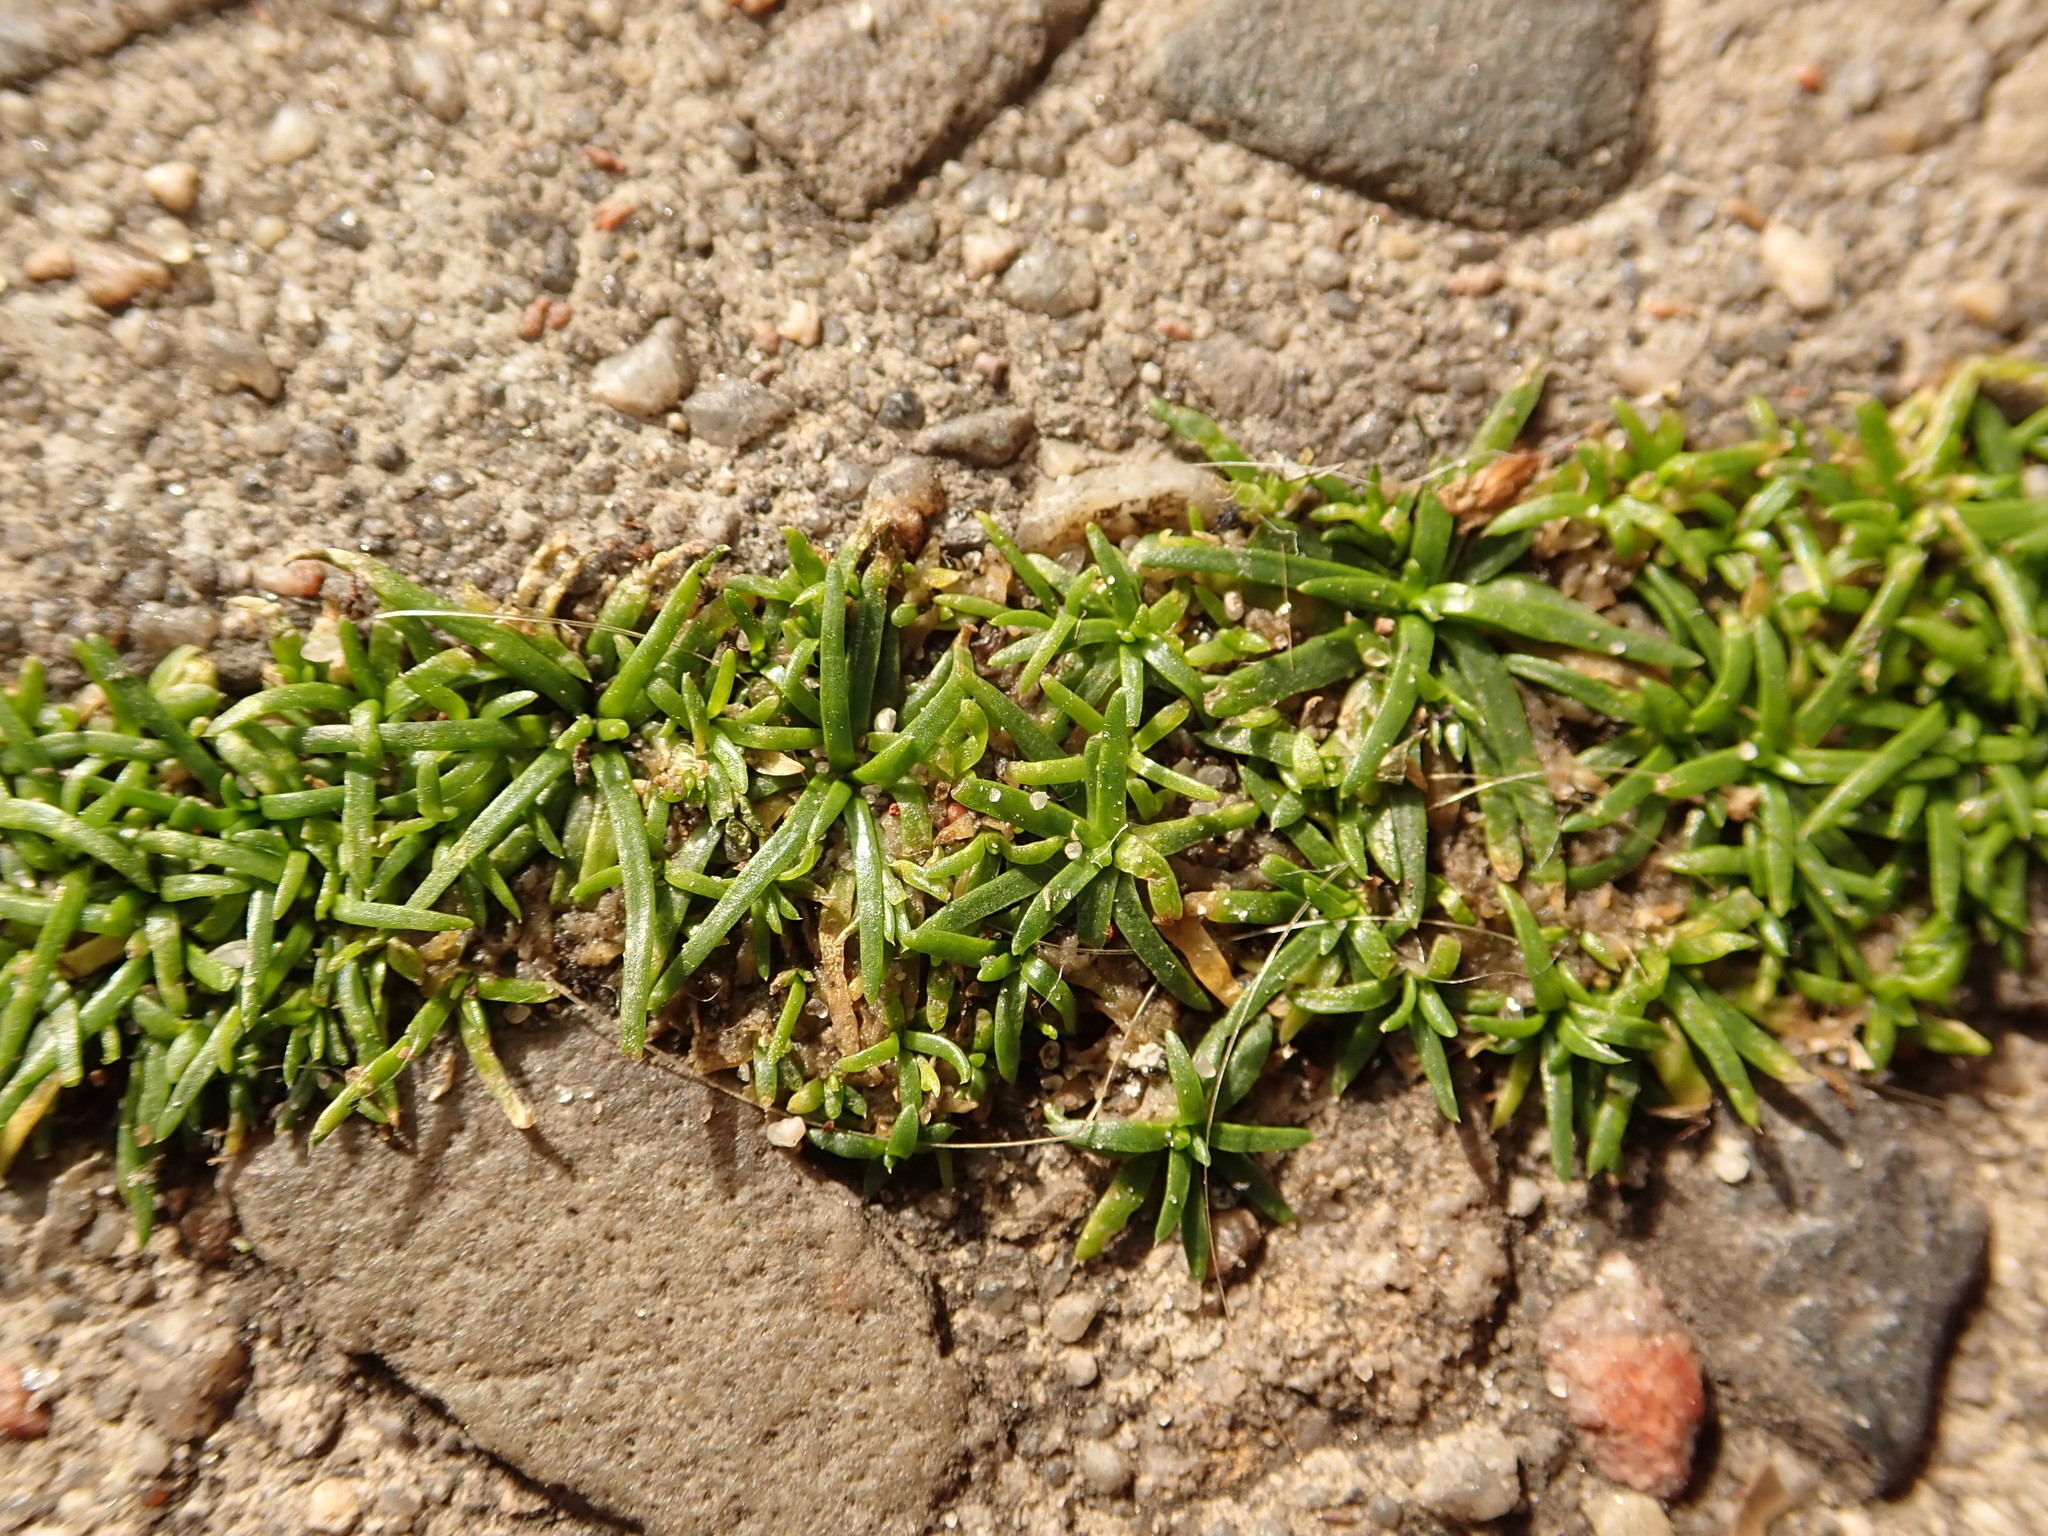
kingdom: Plantae
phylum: Tracheophyta
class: Magnoliopsida
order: Caryophyllales
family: Caryophyllaceae
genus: Sagina
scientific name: Sagina procumbens
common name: Procumbent pearlwort
